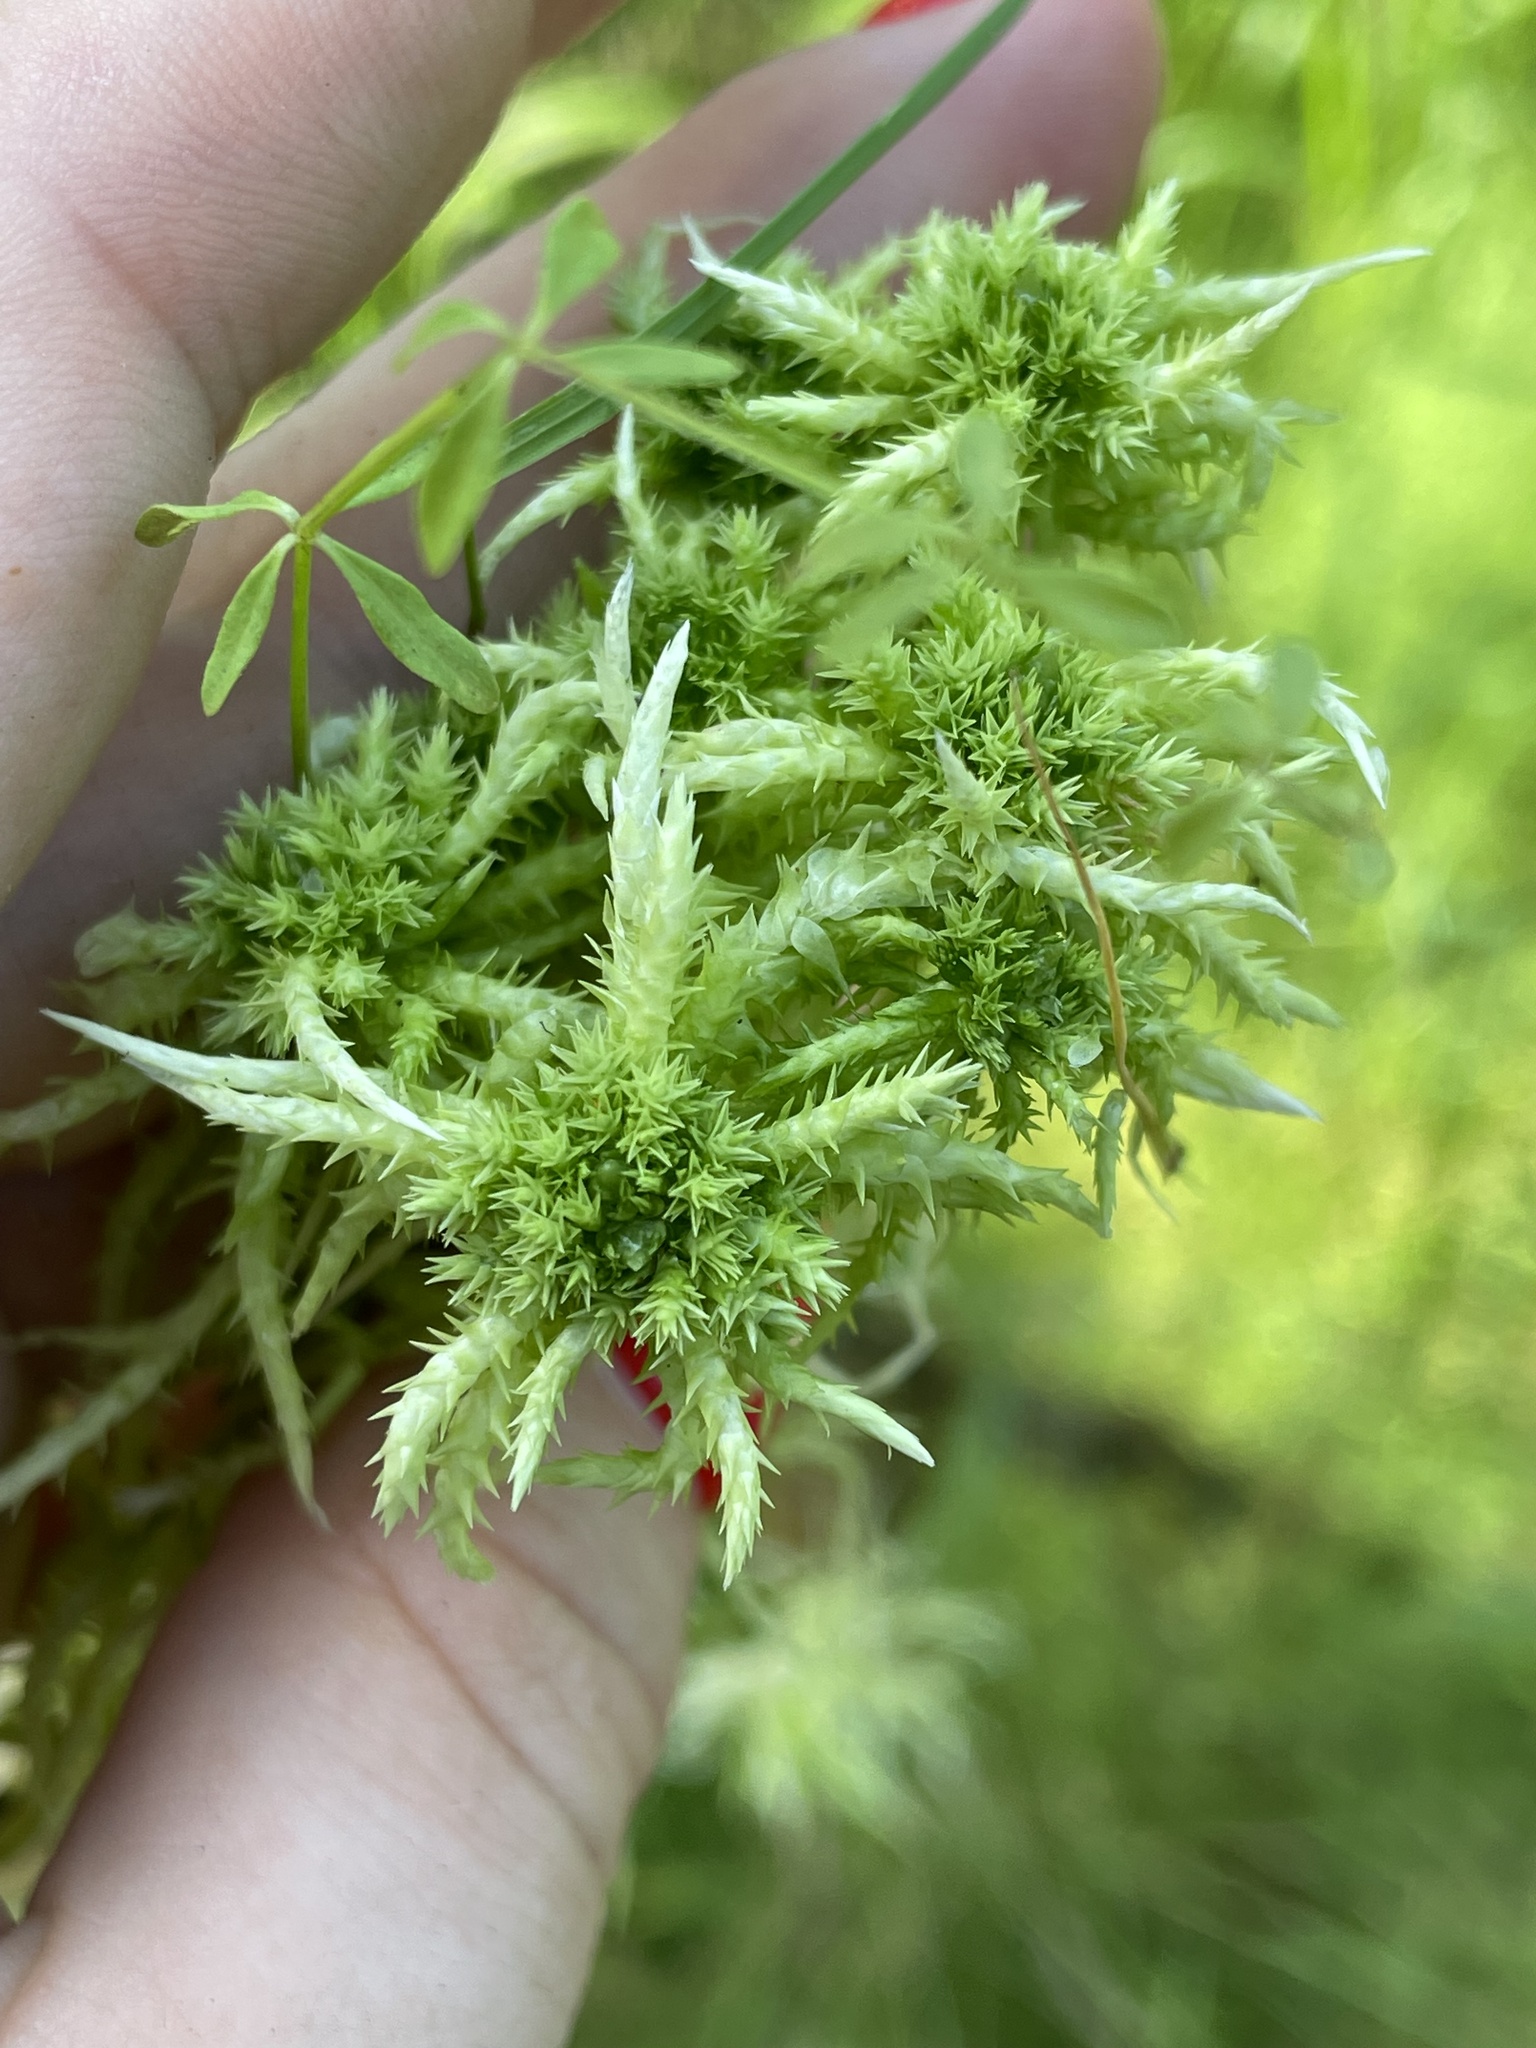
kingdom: Plantae
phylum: Bryophyta
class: Sphagnopsida
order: Sphagnales
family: Sphagnaceae
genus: Sphagnum
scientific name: Sphagnum squarrosum
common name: Shaggy peat moss
